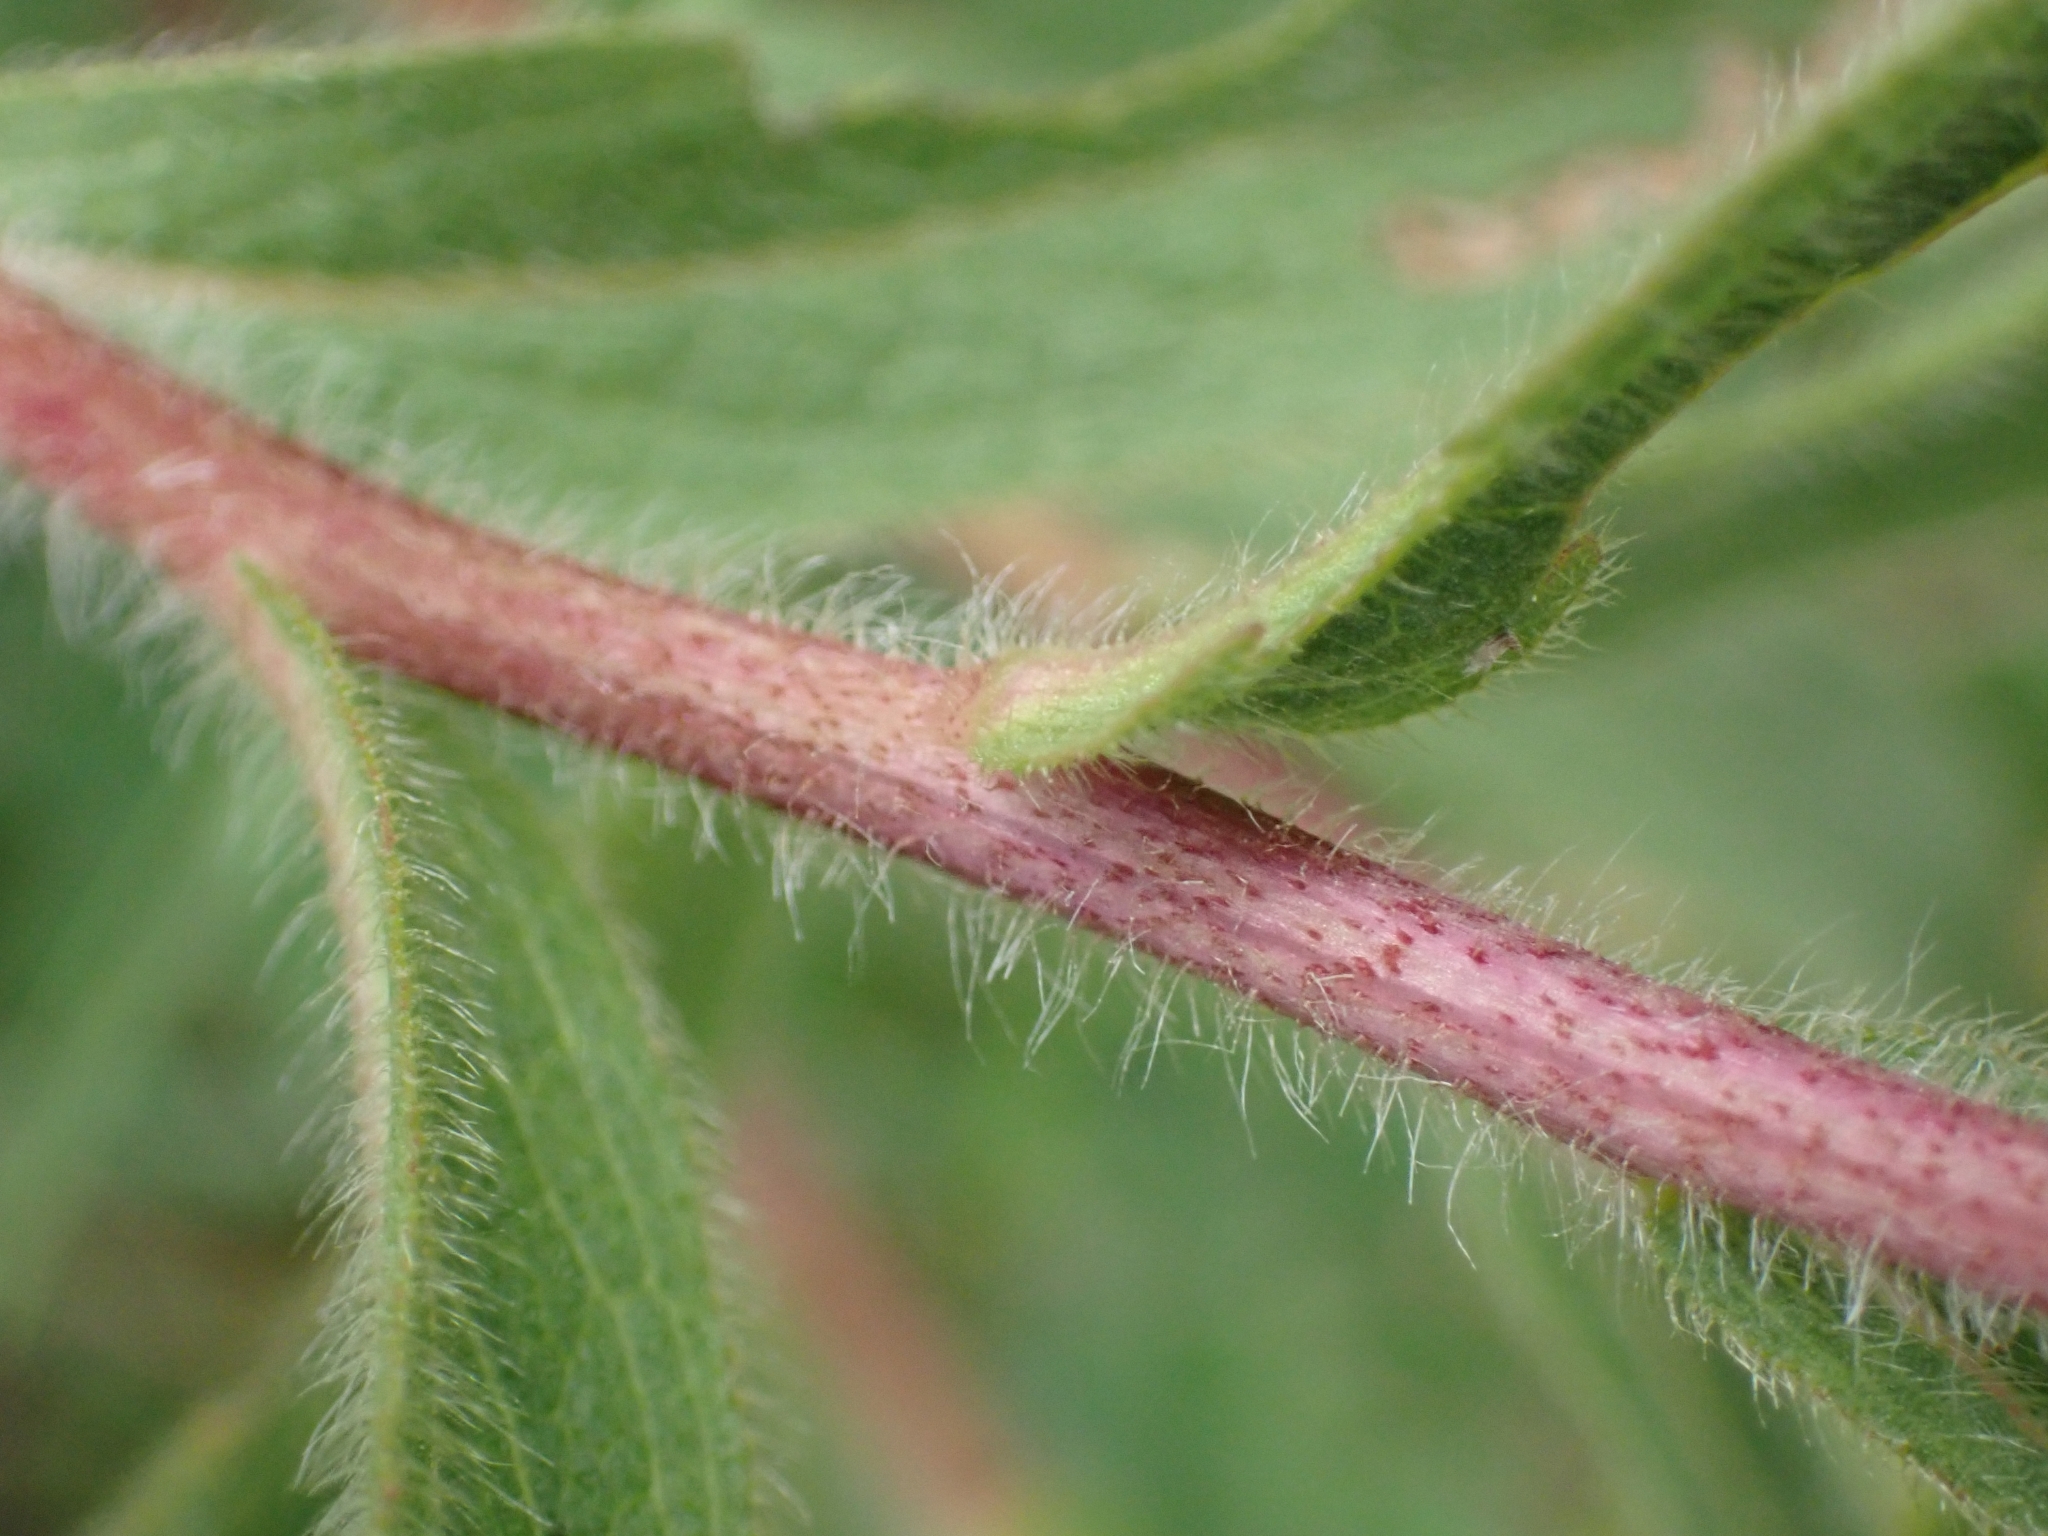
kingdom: Plantae
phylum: Tracheophyta
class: Magnoliopsida
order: Asterales
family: Asteraceae
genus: Pentanema
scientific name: Pentanema hirtum
